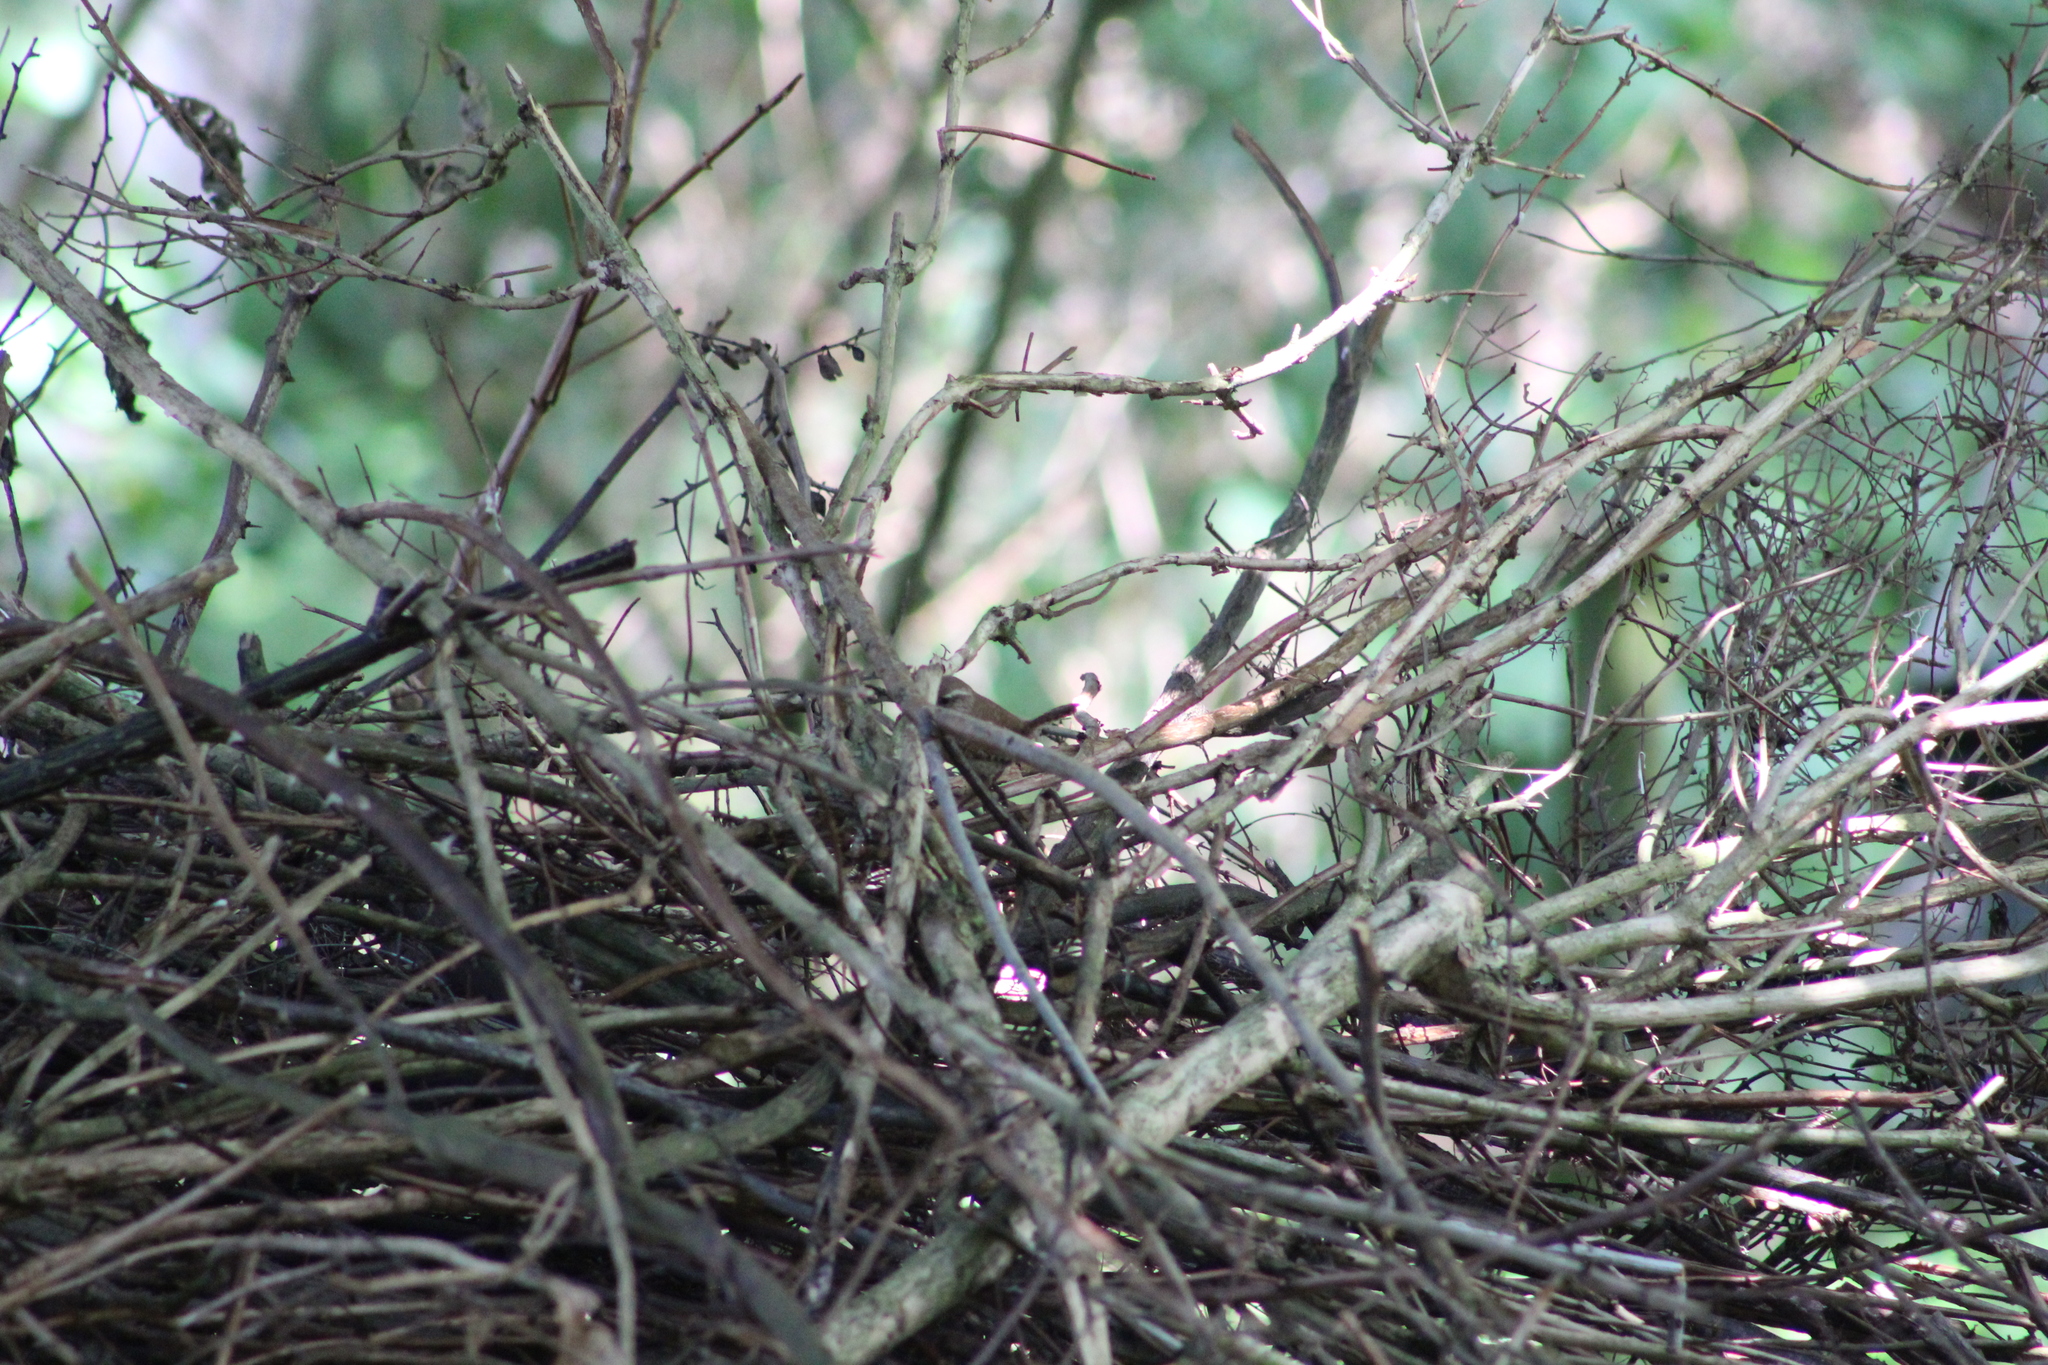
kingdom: Animalia
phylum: Chordata
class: Aves
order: Passeriformes
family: Troglodytidae
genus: Troglodytes
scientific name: Troglodytes troglodytes
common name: Eurasian wren
